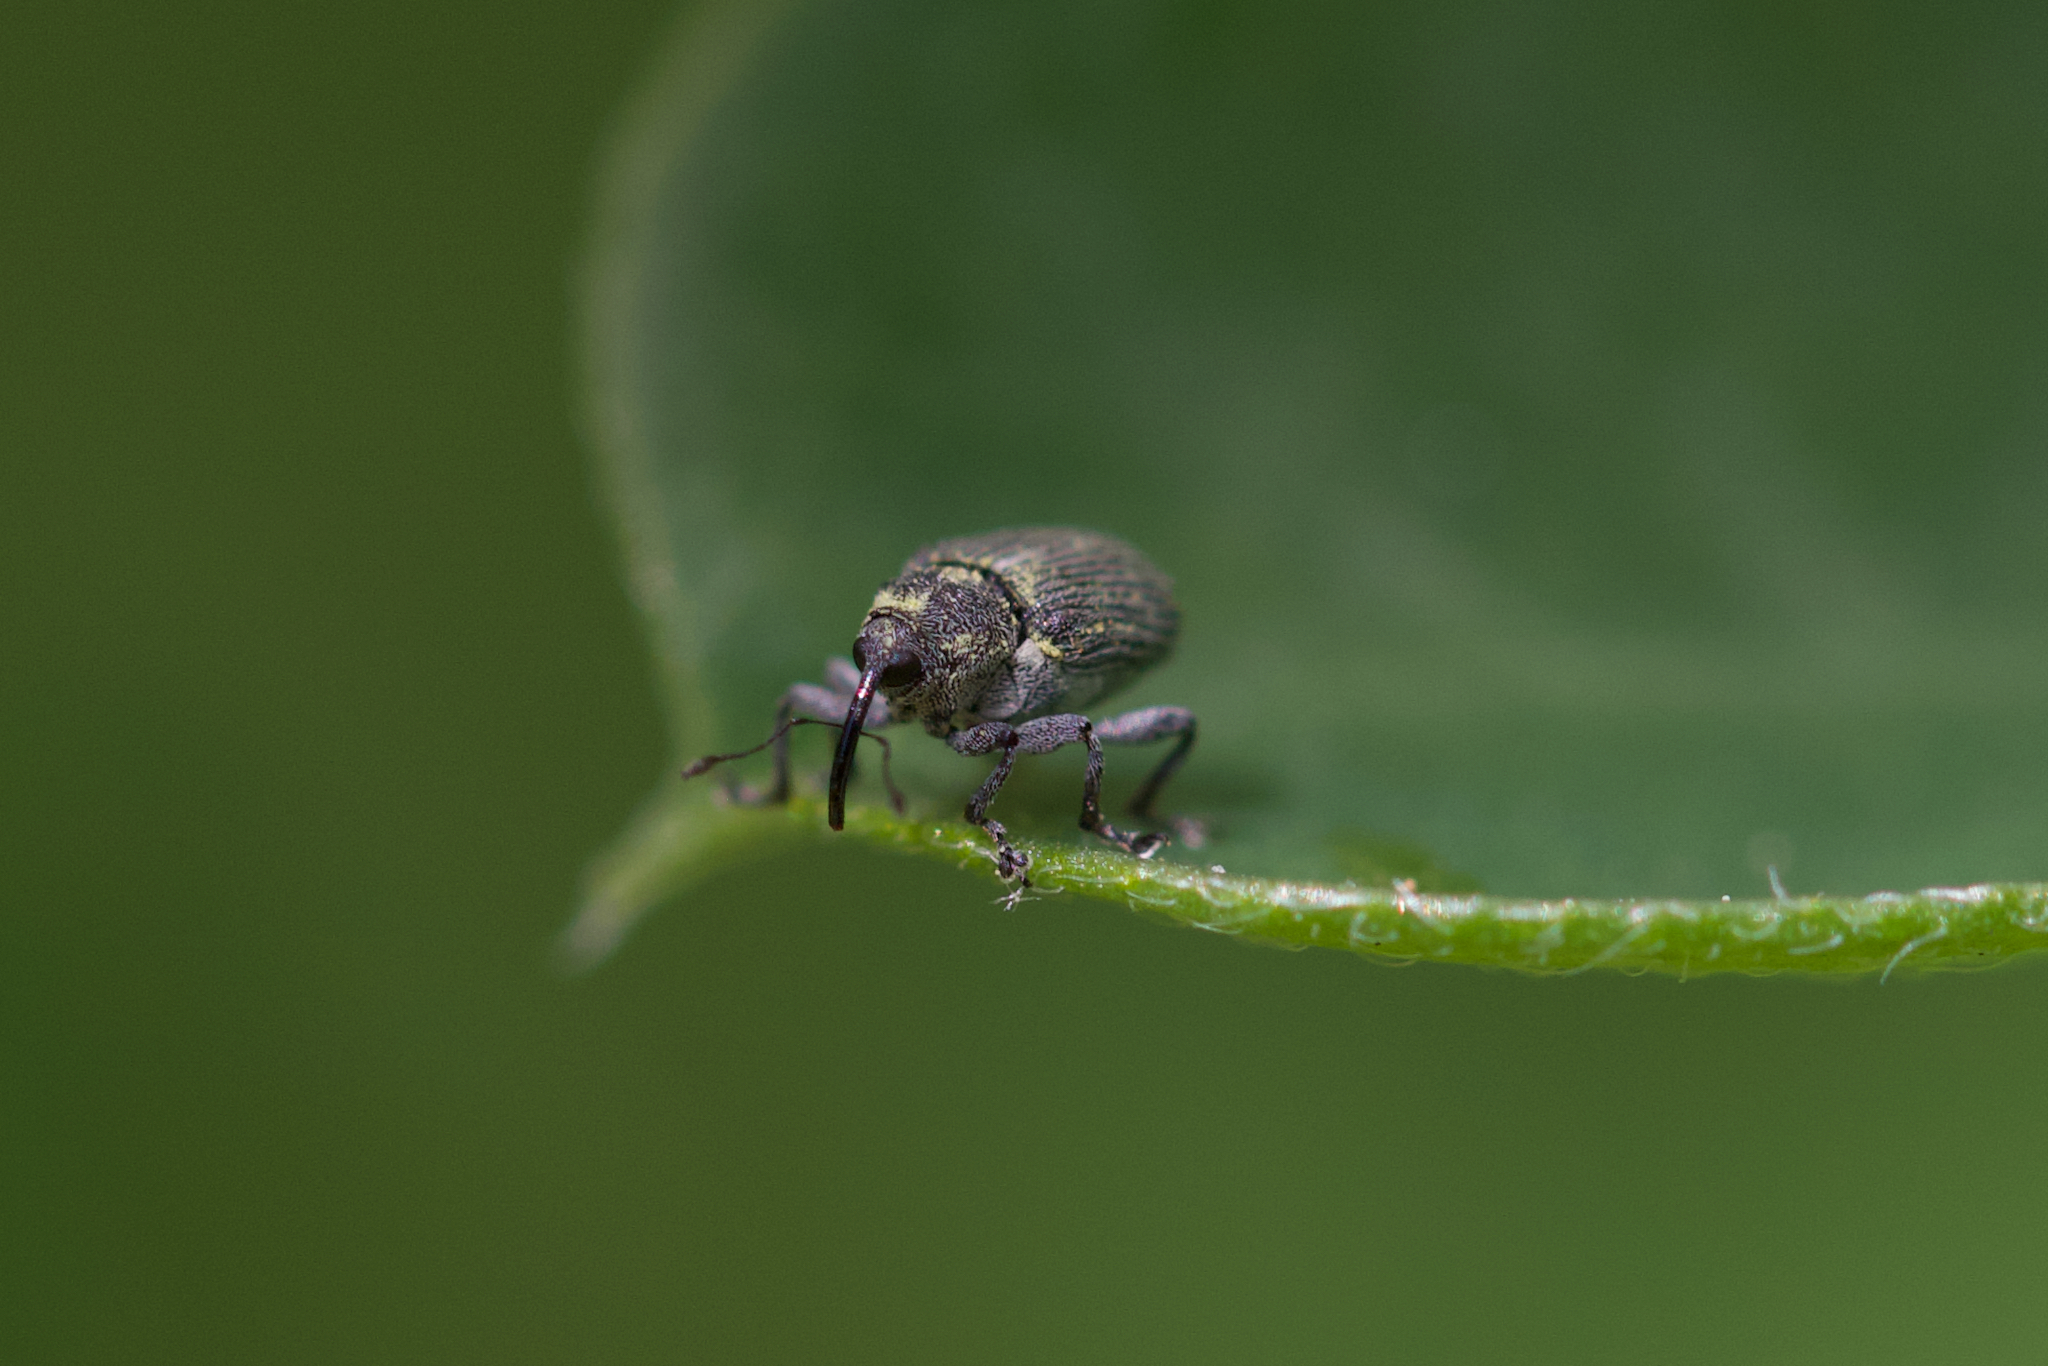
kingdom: Animalia
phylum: Arthropoda
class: Insecta
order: Coleoptera
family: Curculionidae
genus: Ceutorhynchus
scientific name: Ceutorhynchus obstrictus
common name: Cabbage seed weevil
